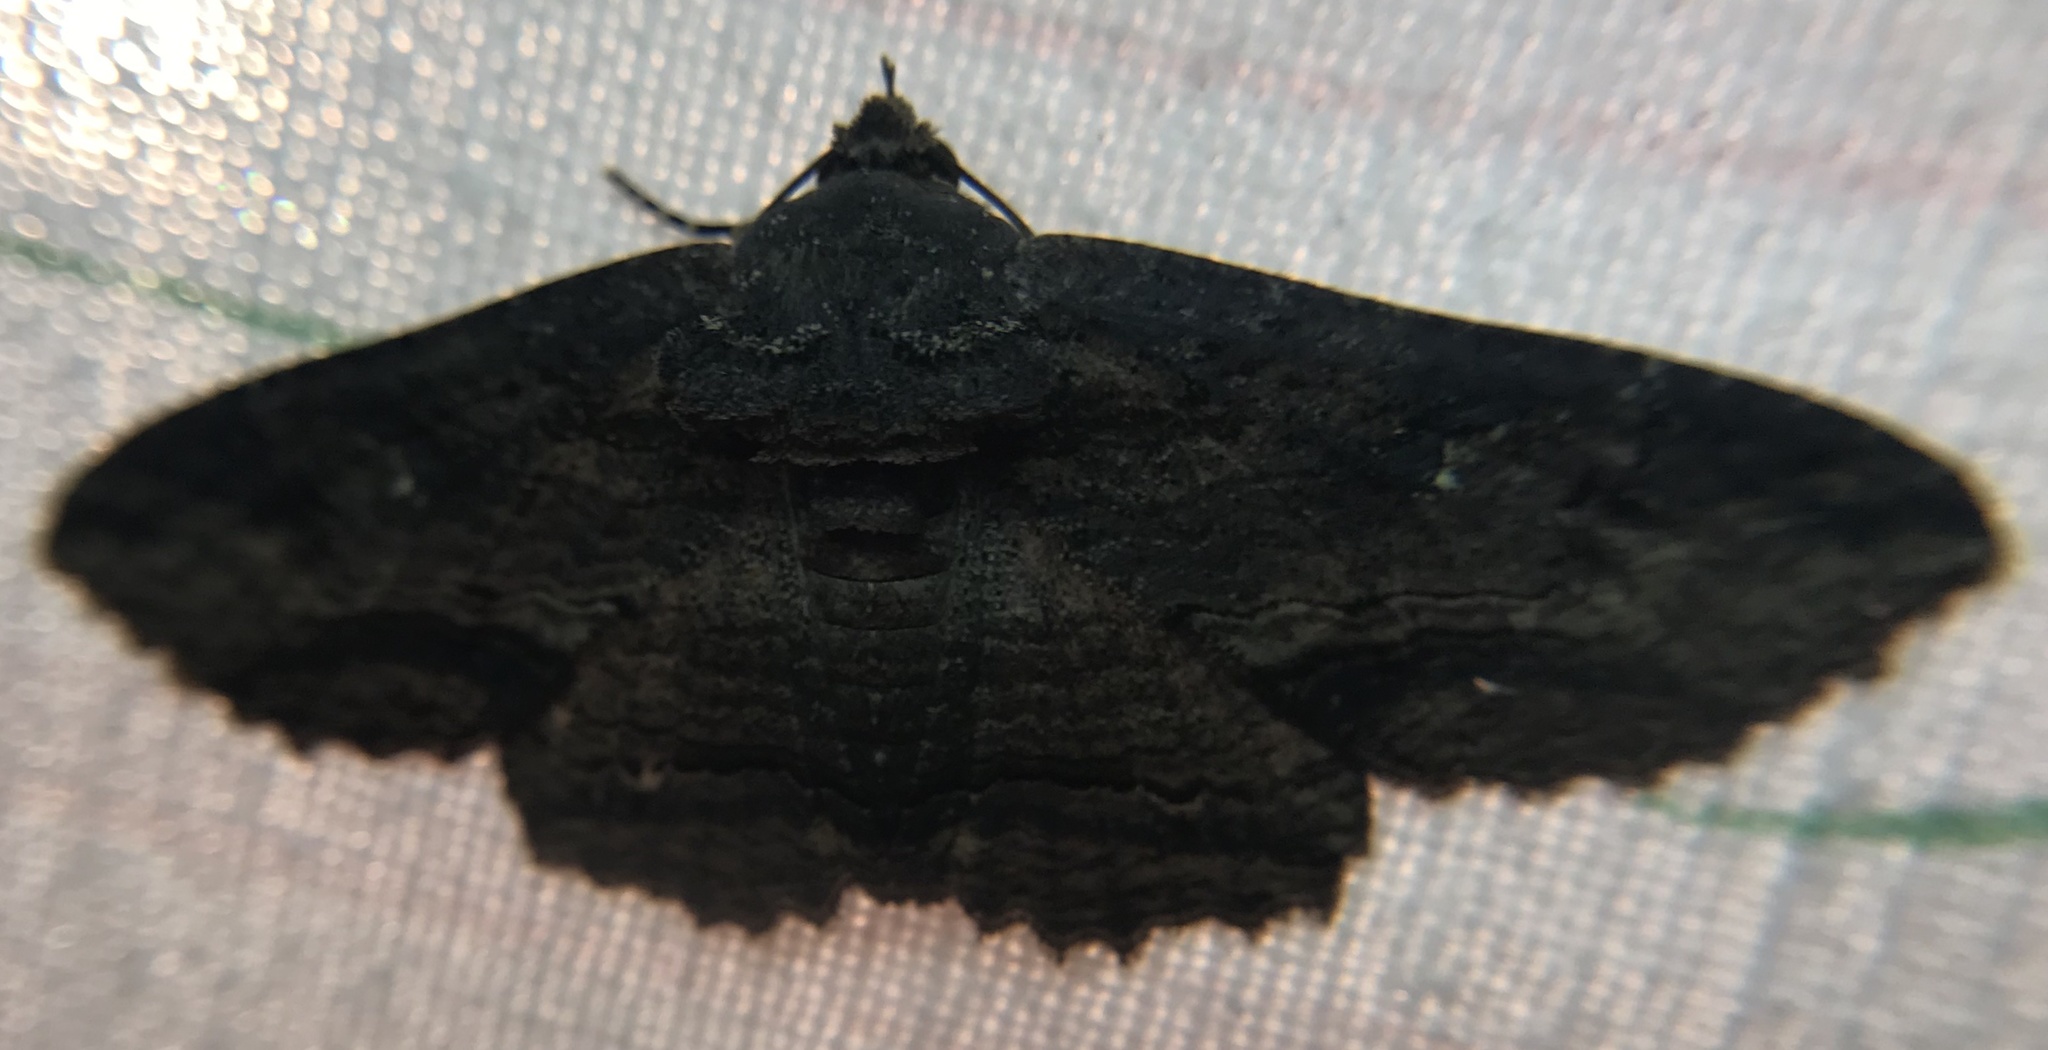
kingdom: Animalia
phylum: Arthropoda
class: Insecta
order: Lepidoptera
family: Erebidae
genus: Zale
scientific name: Zale lunata
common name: Lunate zale moth
